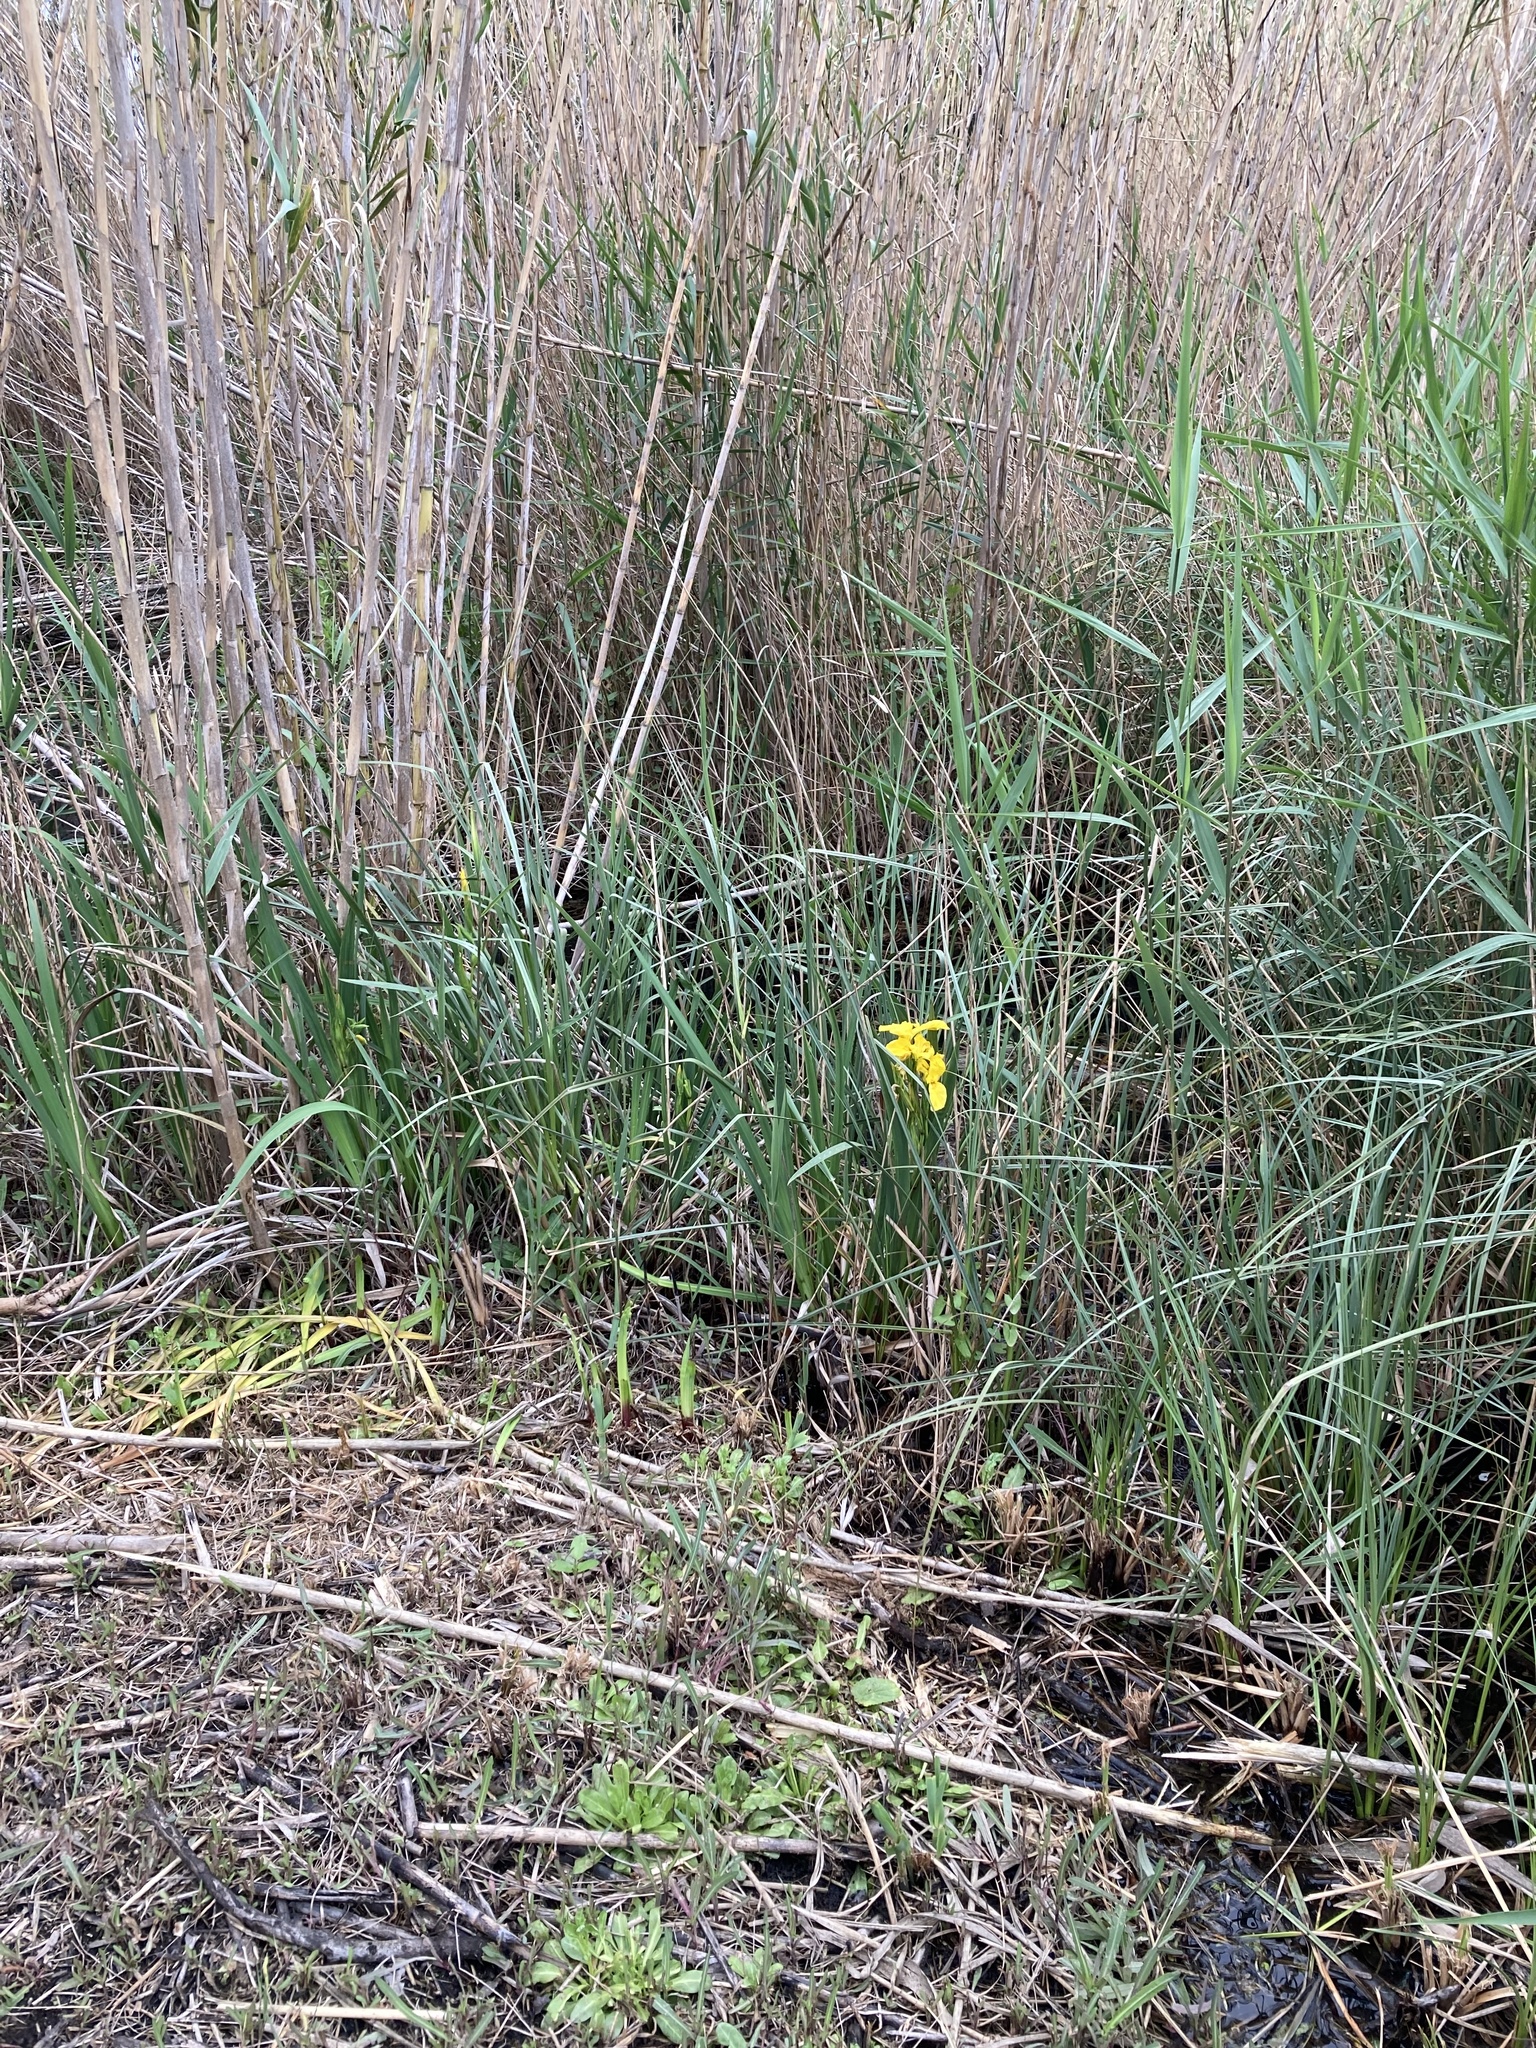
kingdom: Plantae
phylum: Tracheophyta
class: Liliopsida
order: Asparagales
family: Iridaceae
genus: Iris
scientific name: Iris pseudacorus
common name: Yellow flag
